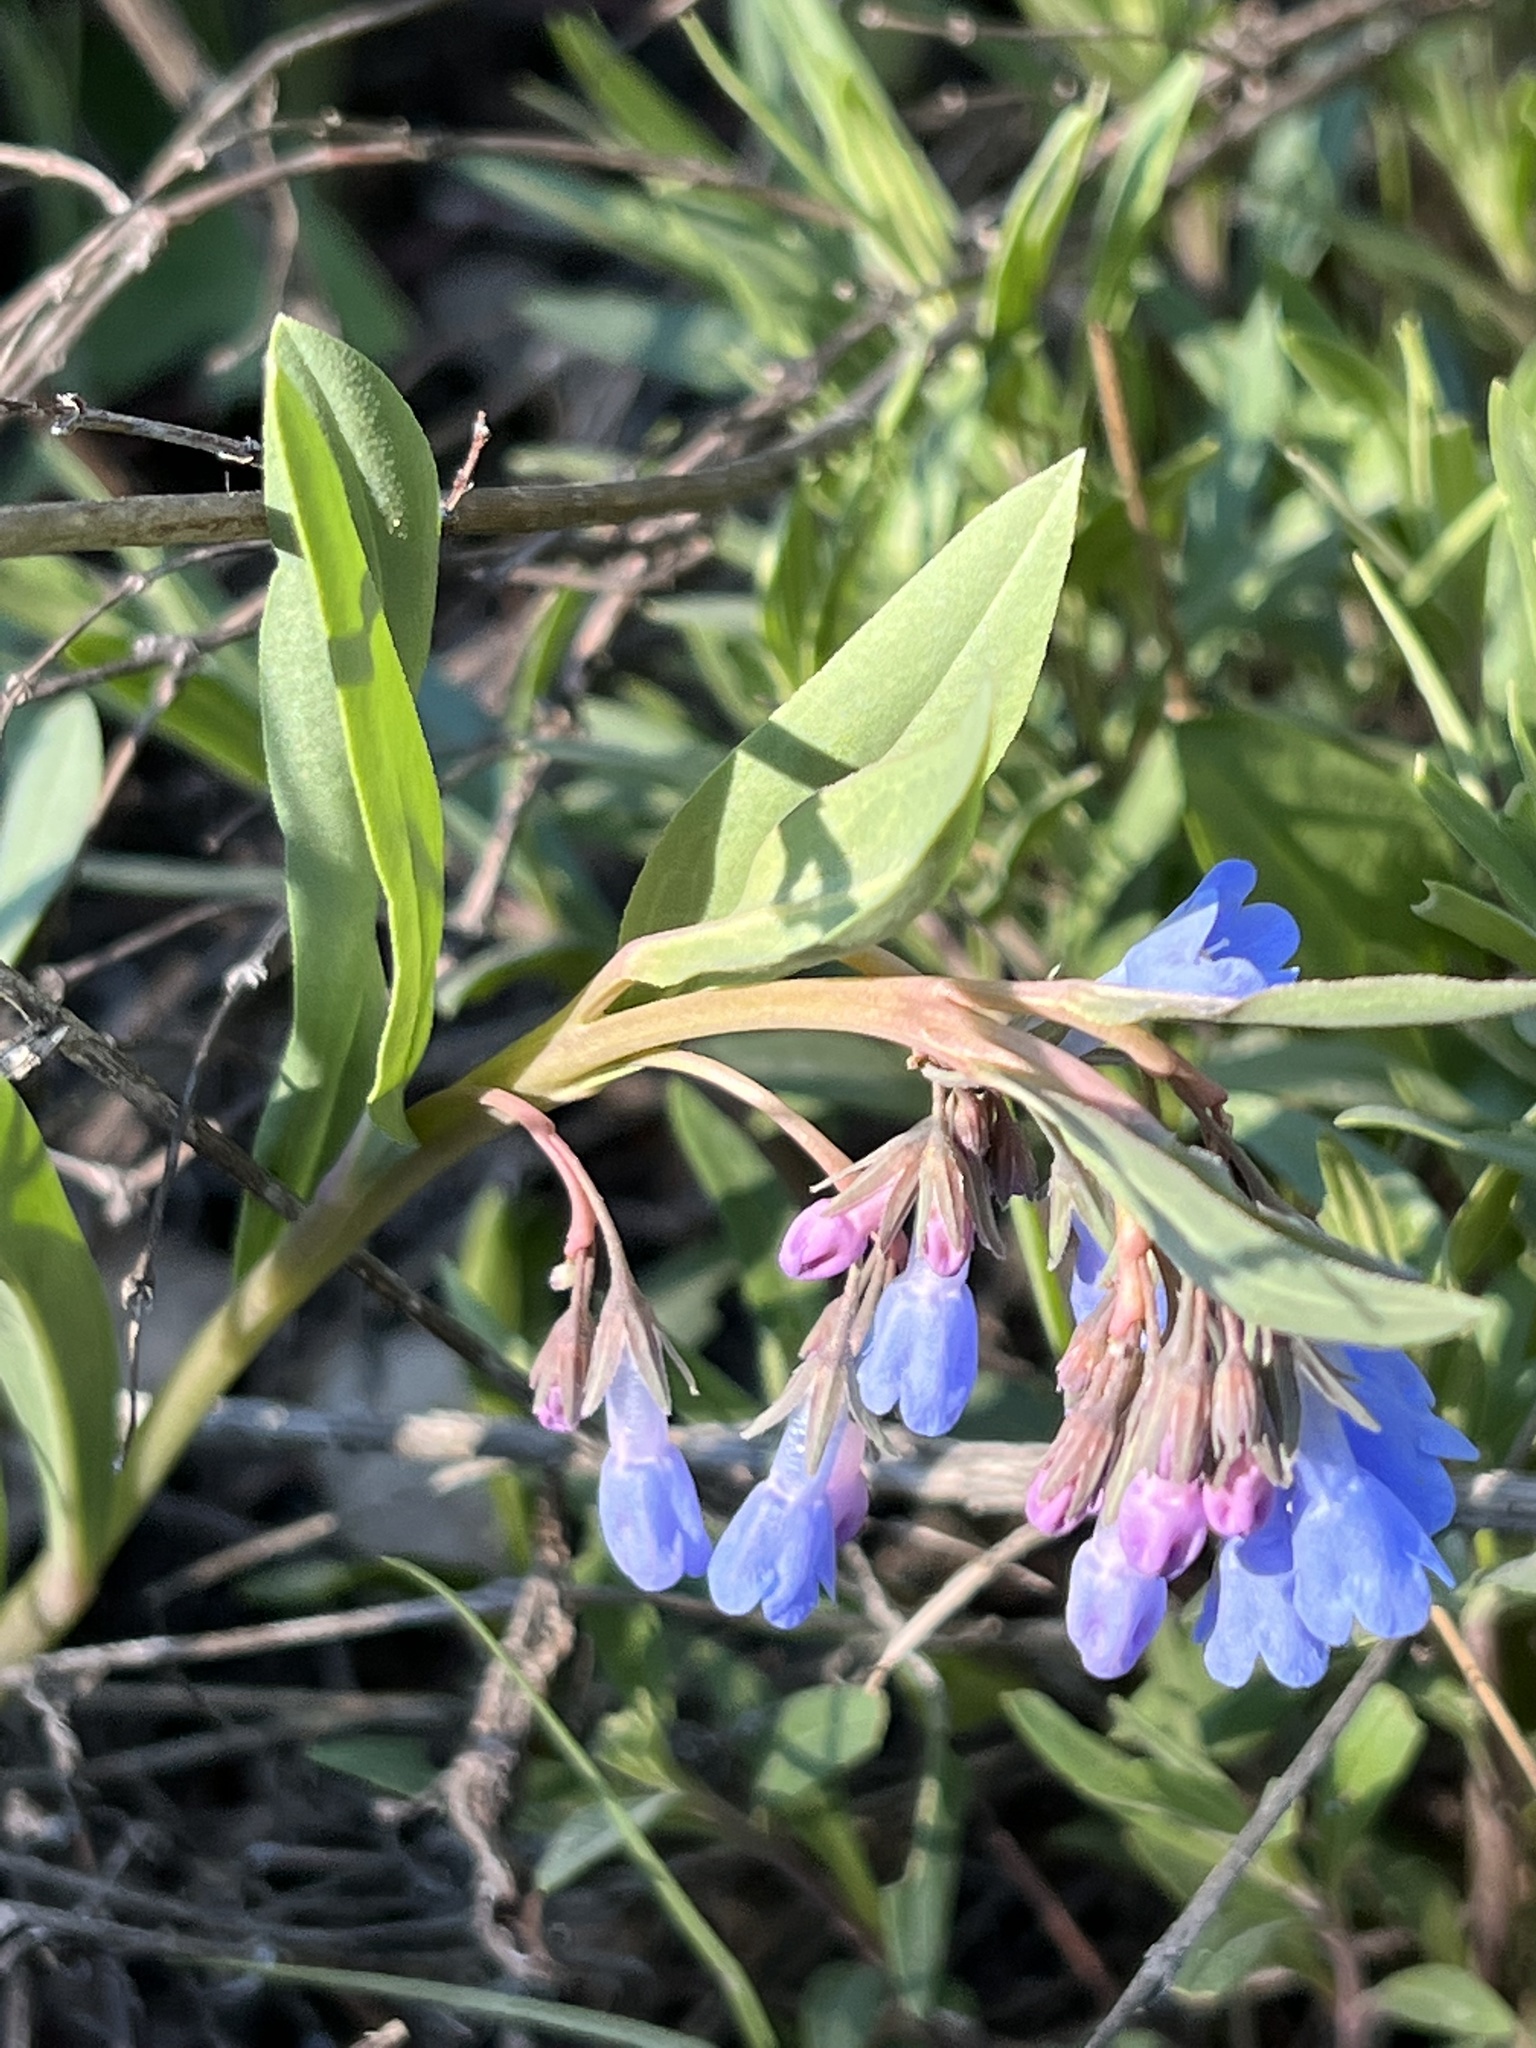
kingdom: Plantae
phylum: Tracheophyta
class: Magnoliopsida
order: Boraginales
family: Boraginaceae
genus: Mertensia
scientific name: Mertensia oblongifolia
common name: Sagebrush bluebells
